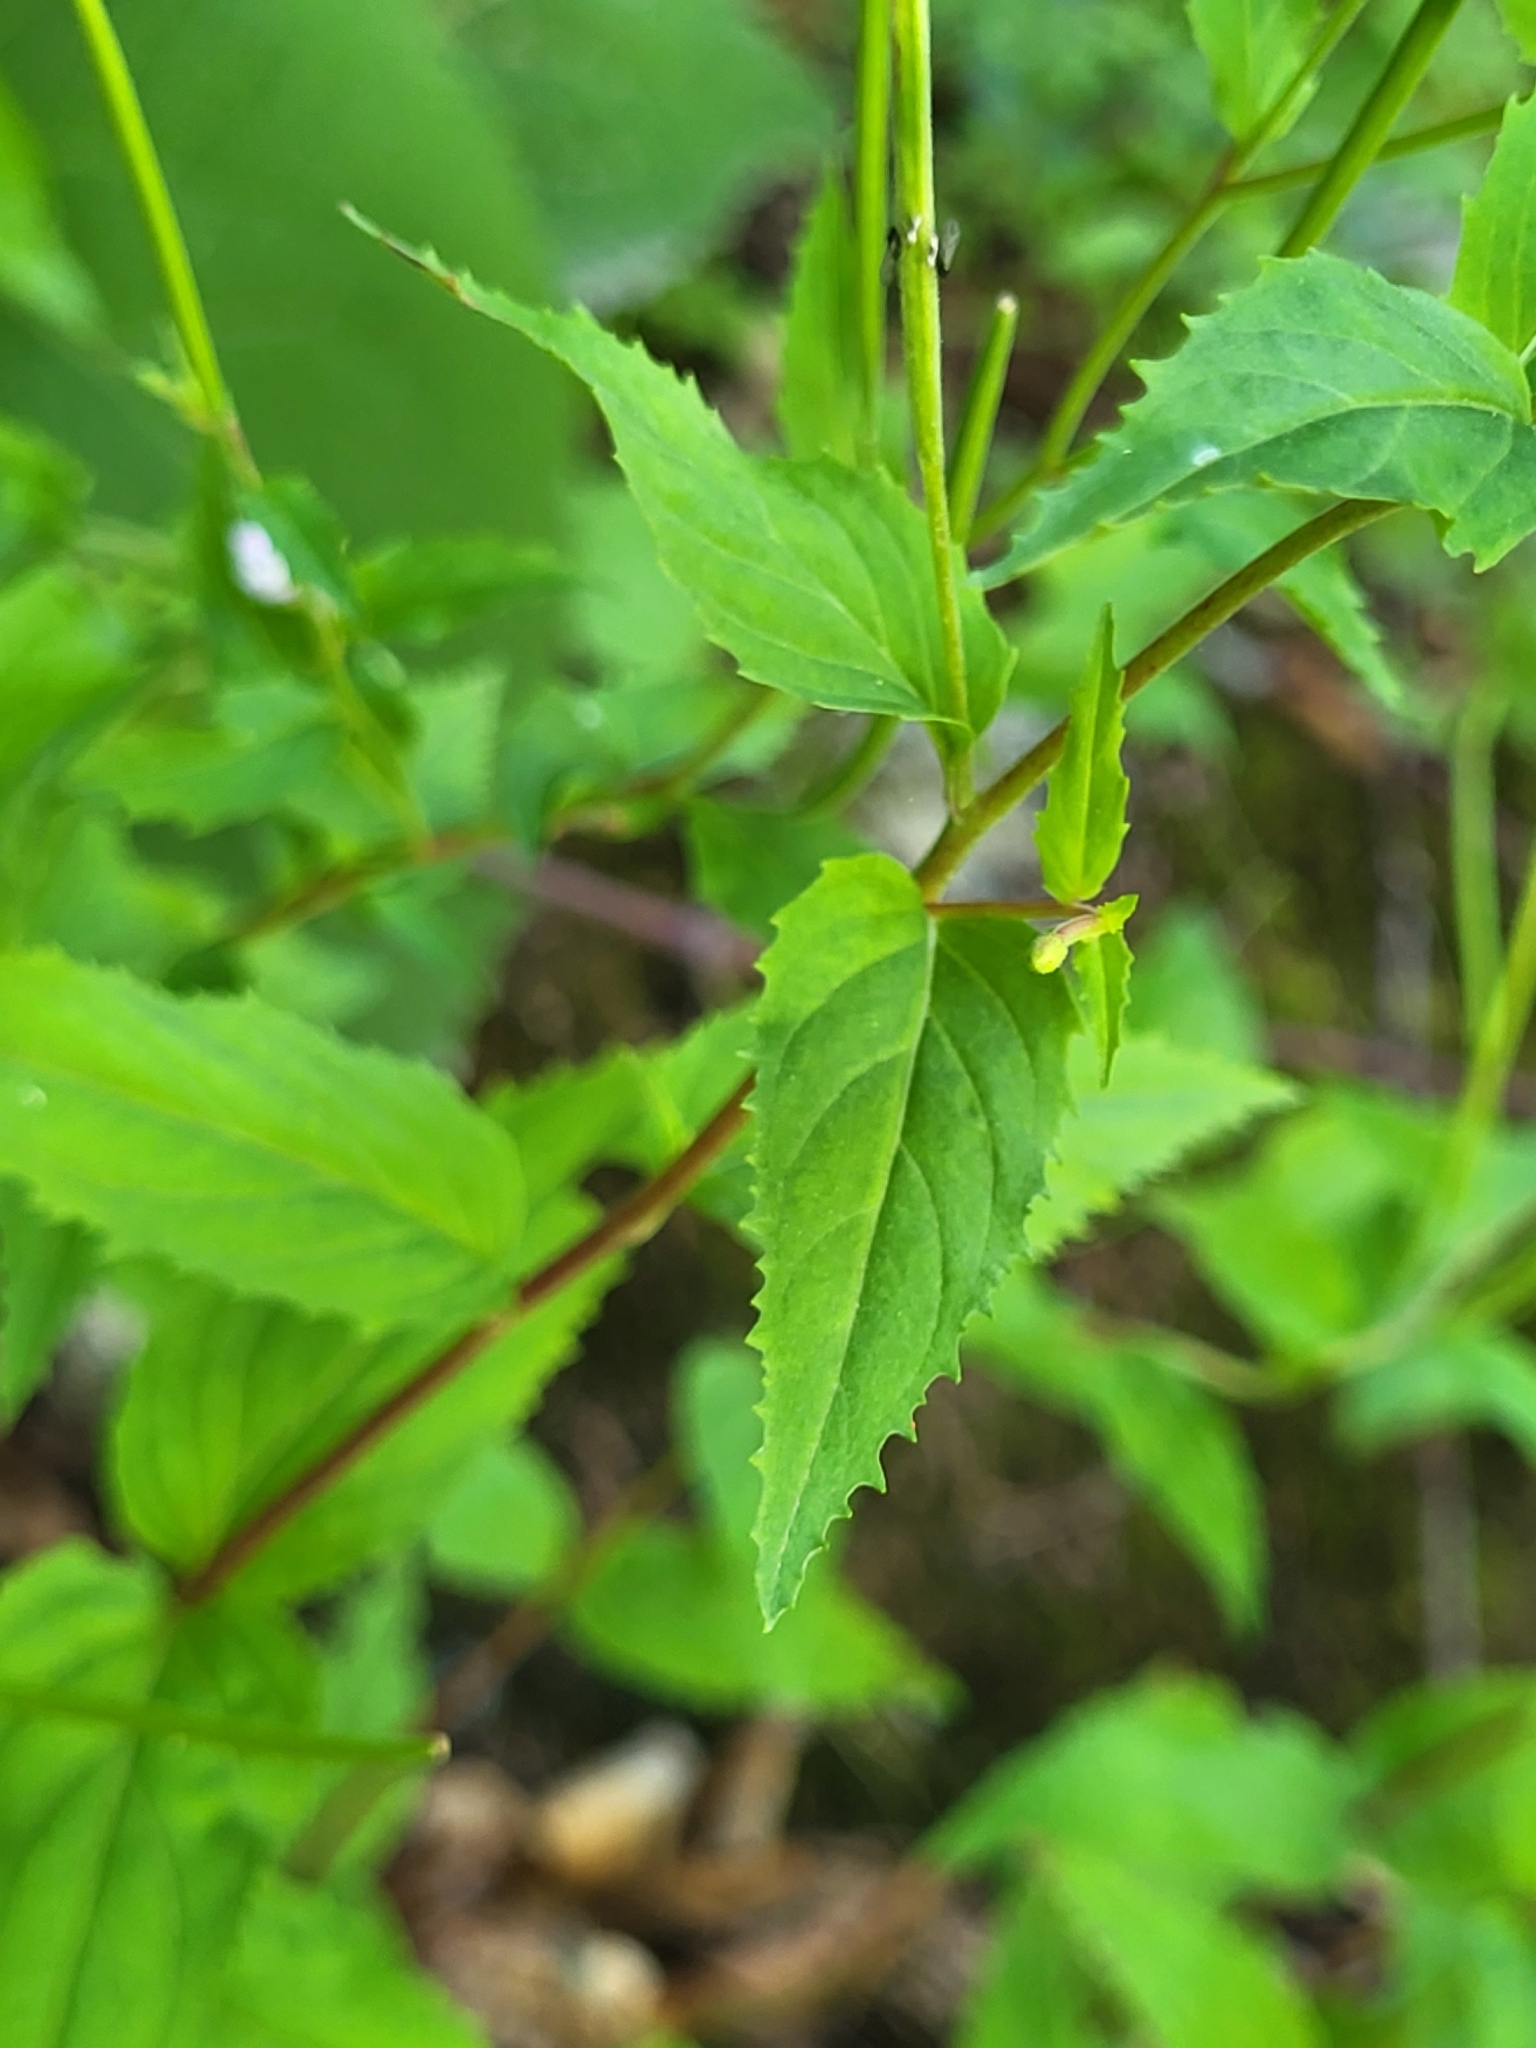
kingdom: Plantae
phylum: Tracheophyta
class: Magnoliopsida
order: Myrtales
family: Onagraceae
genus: Epilobium
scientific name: Epilobium montanum
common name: Broad-leaved willowherb
